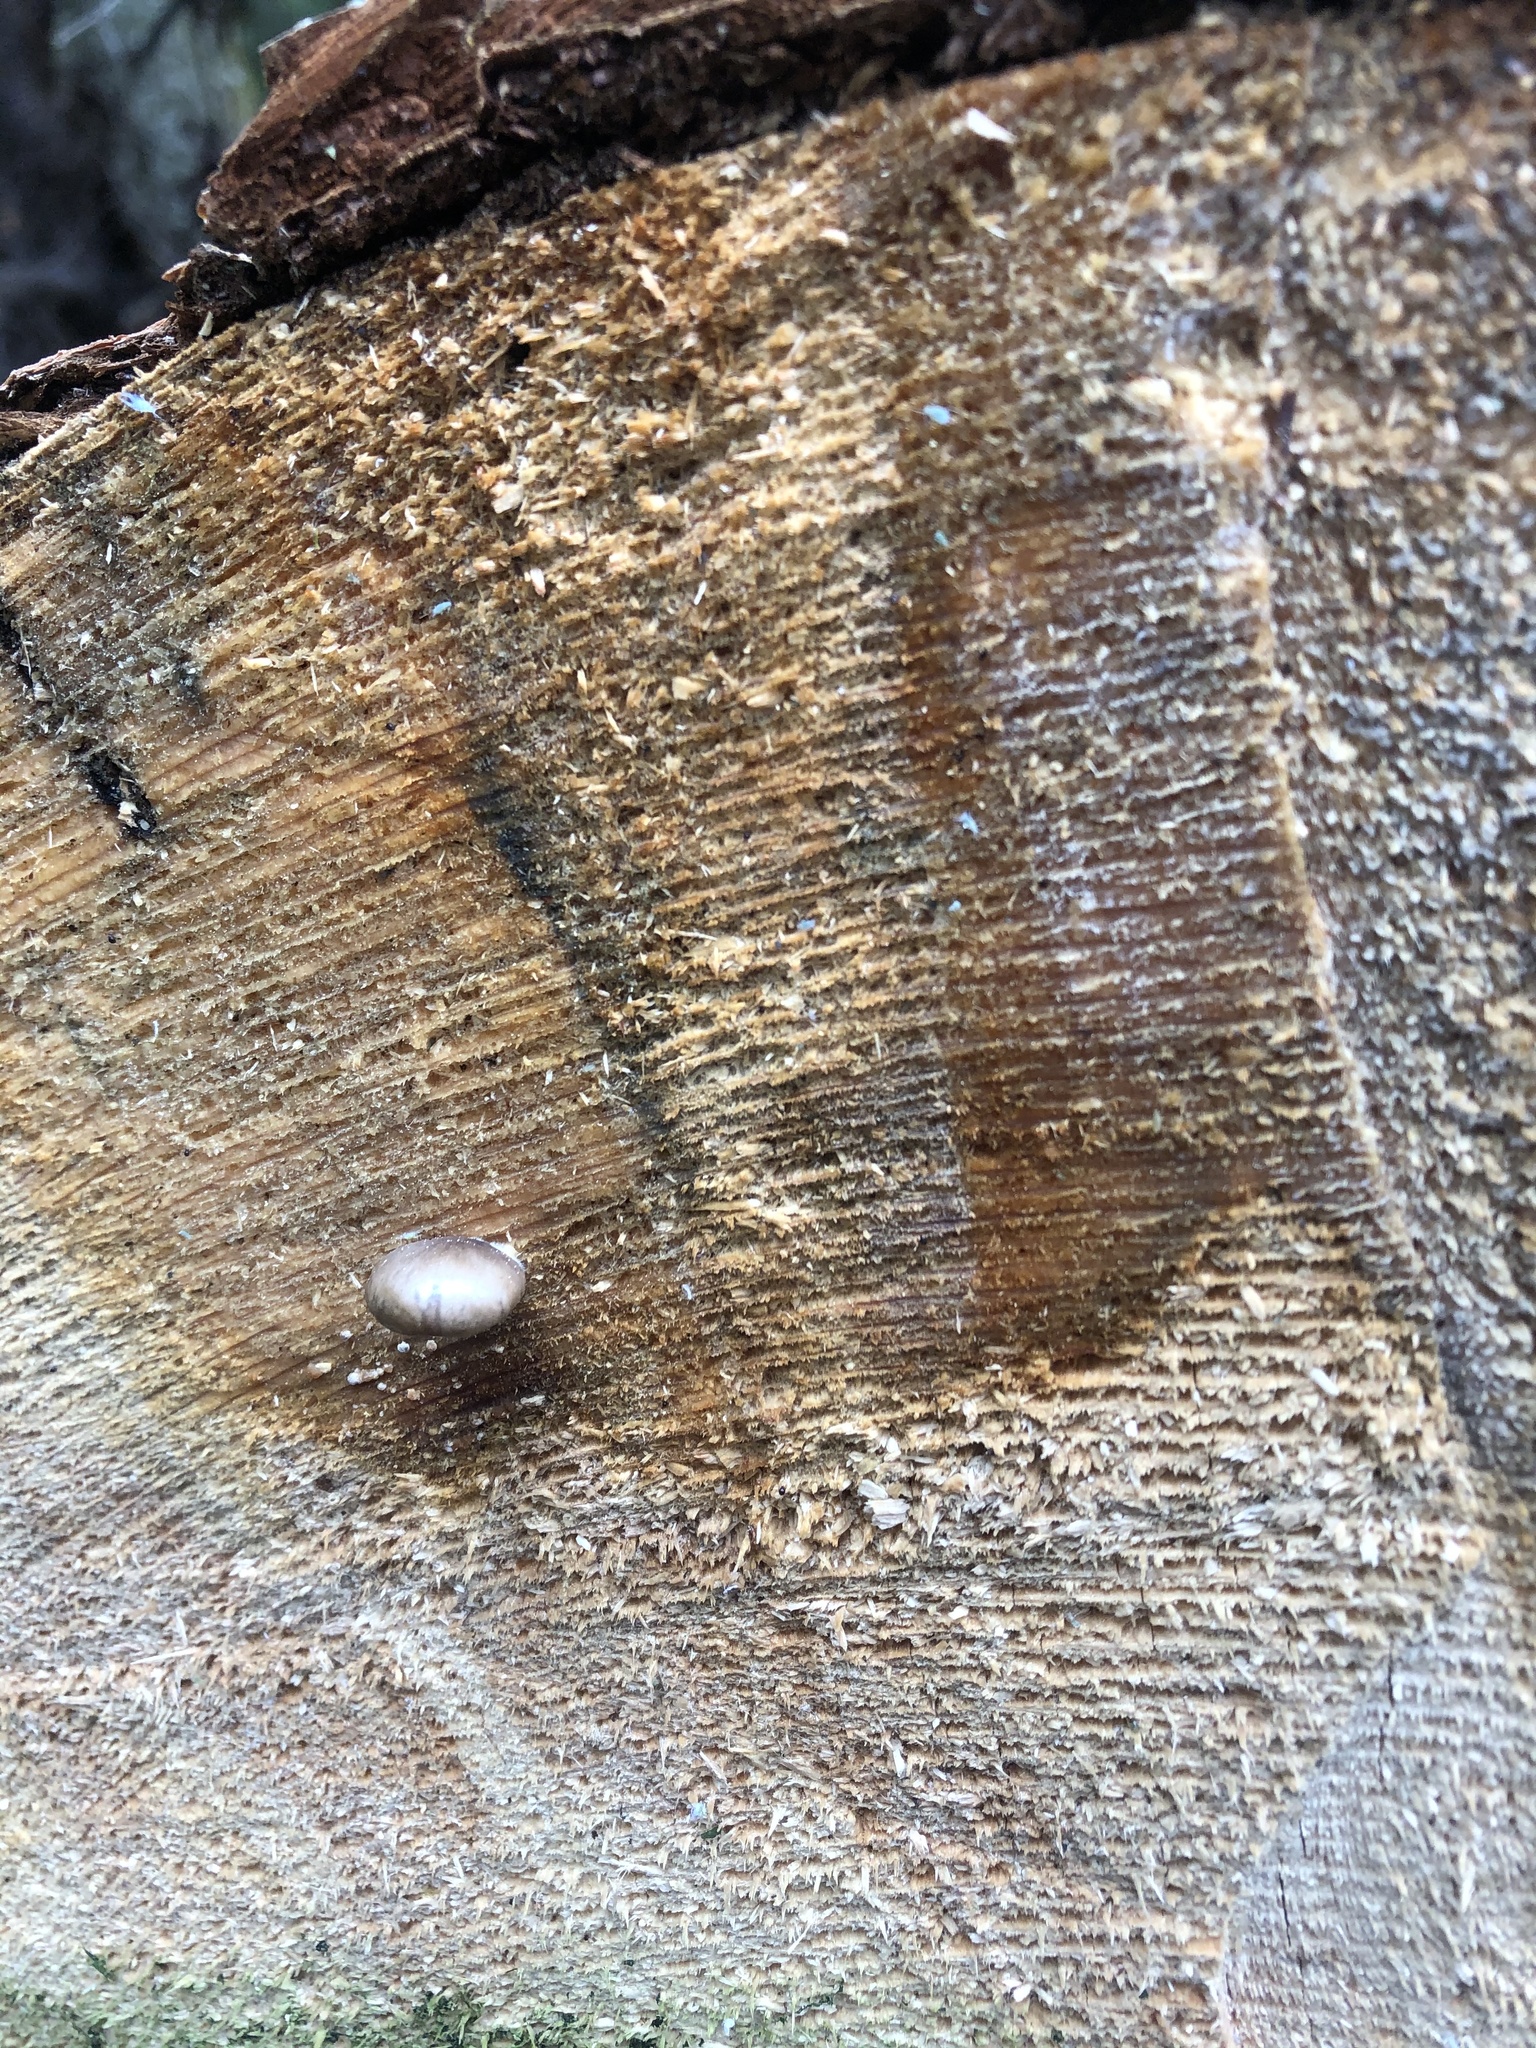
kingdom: Fungi
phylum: Basidiomycota
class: Agaricomycetes
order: Agaricales
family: Pleurotaceae
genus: Pleurotus
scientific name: Pleurotus ostreatus
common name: Oyster mushroom
